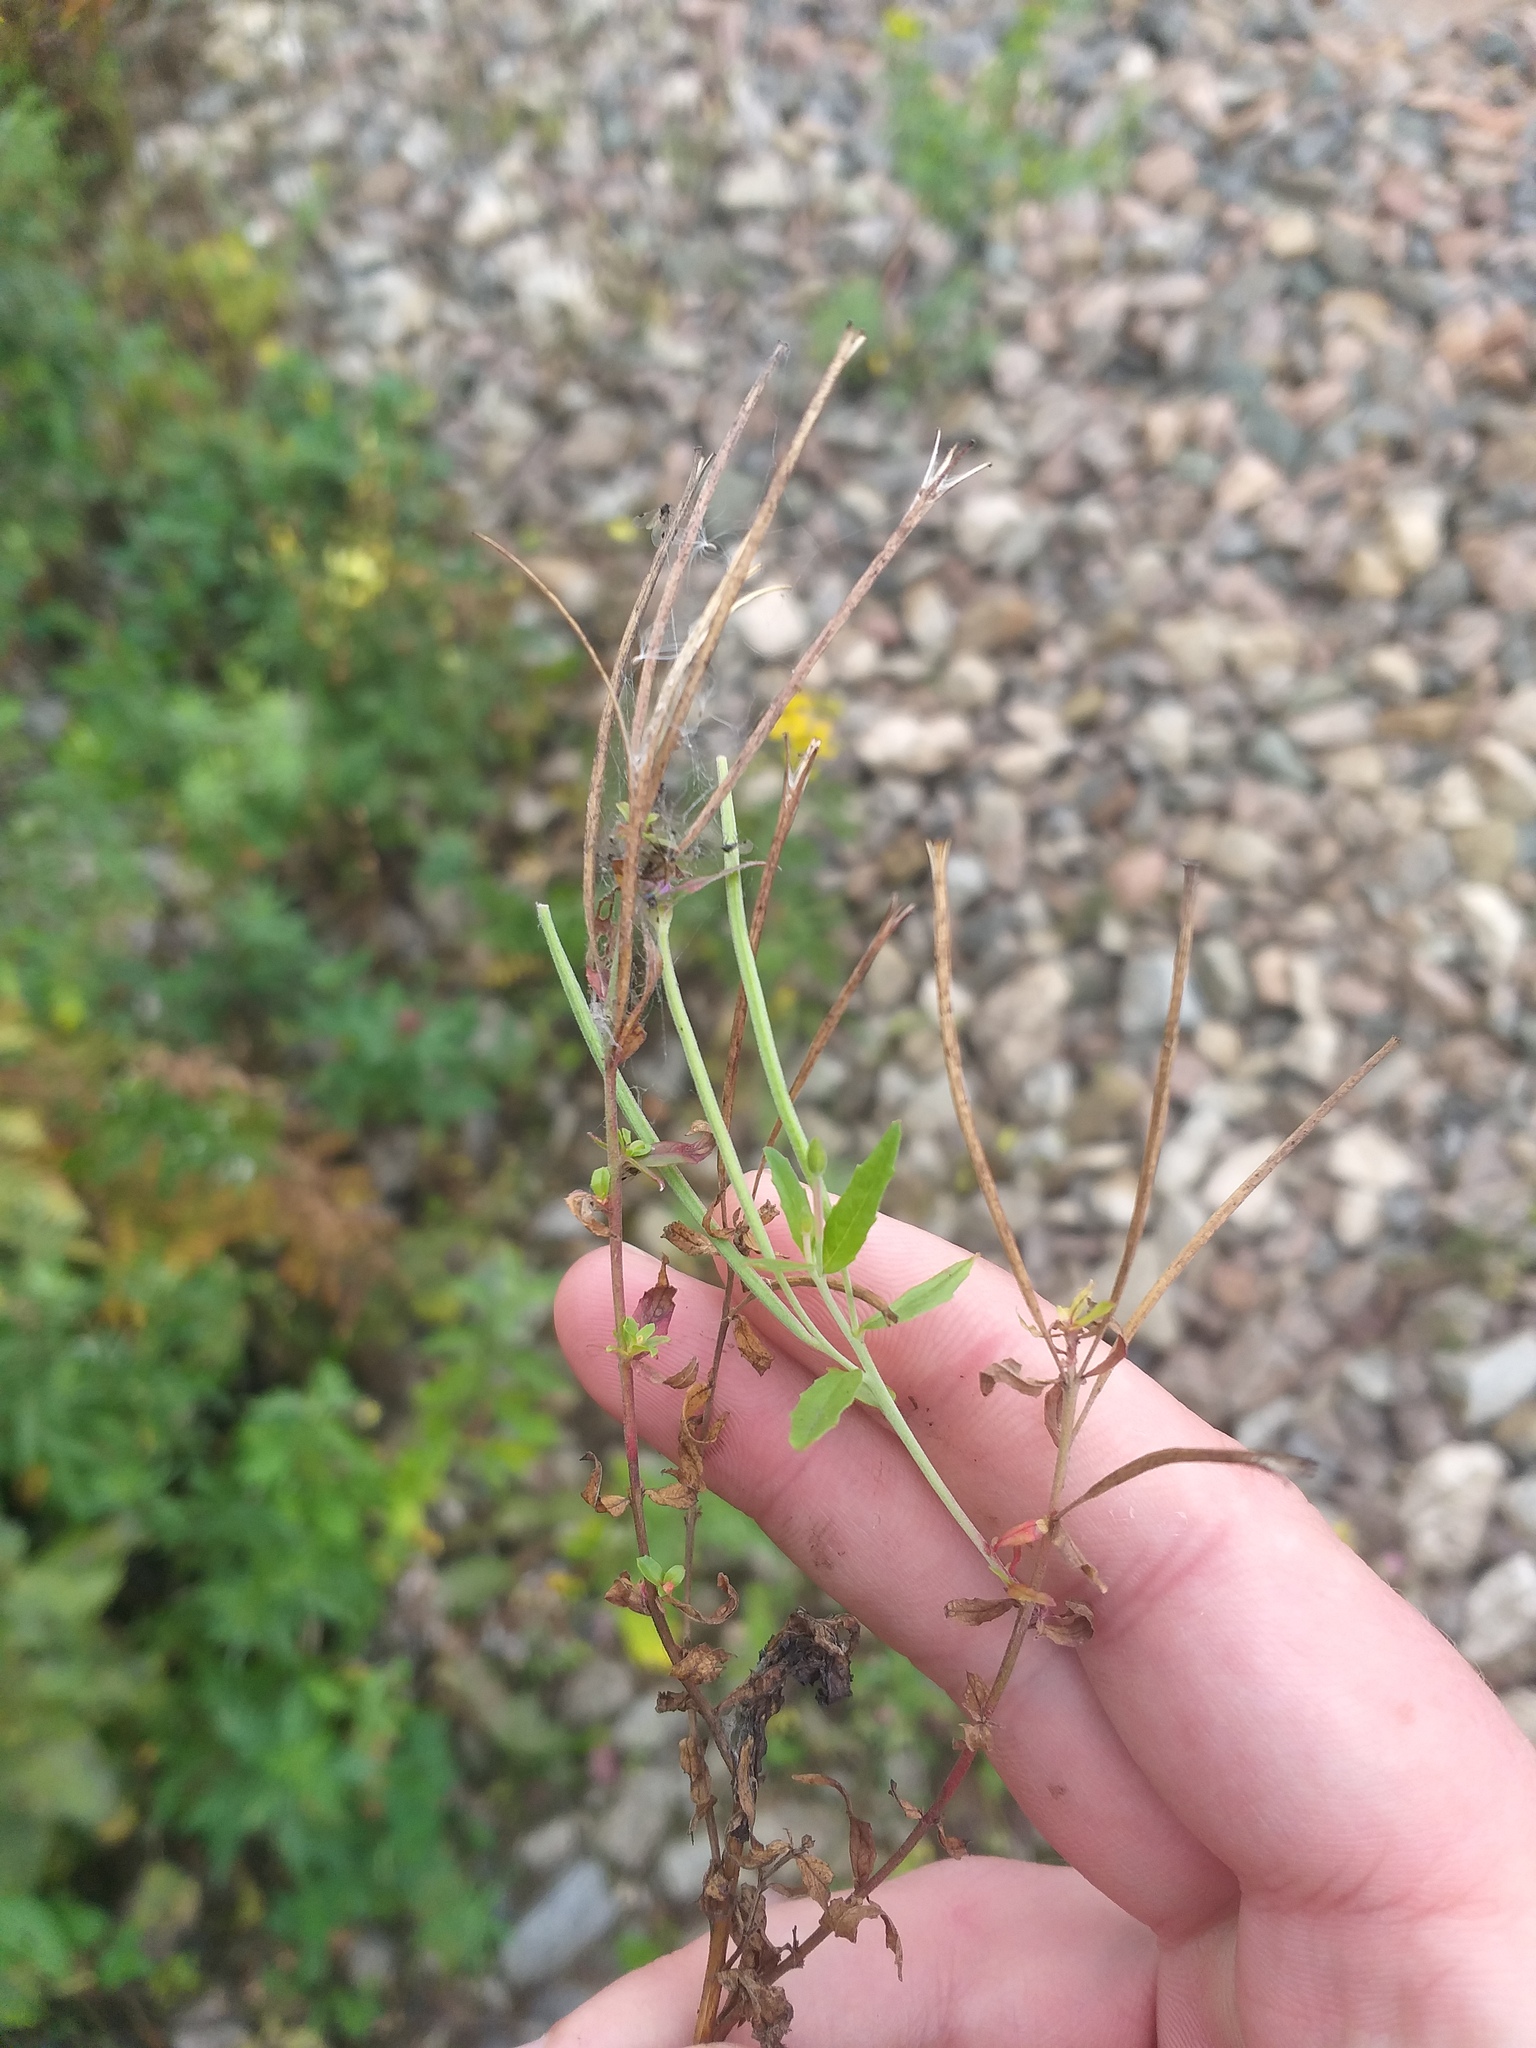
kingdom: Plantae
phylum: Tracheophyta
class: Magnoliopsida
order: Myrtales
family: Onagraceae
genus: Epilobium
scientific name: Epilobium lamyi
